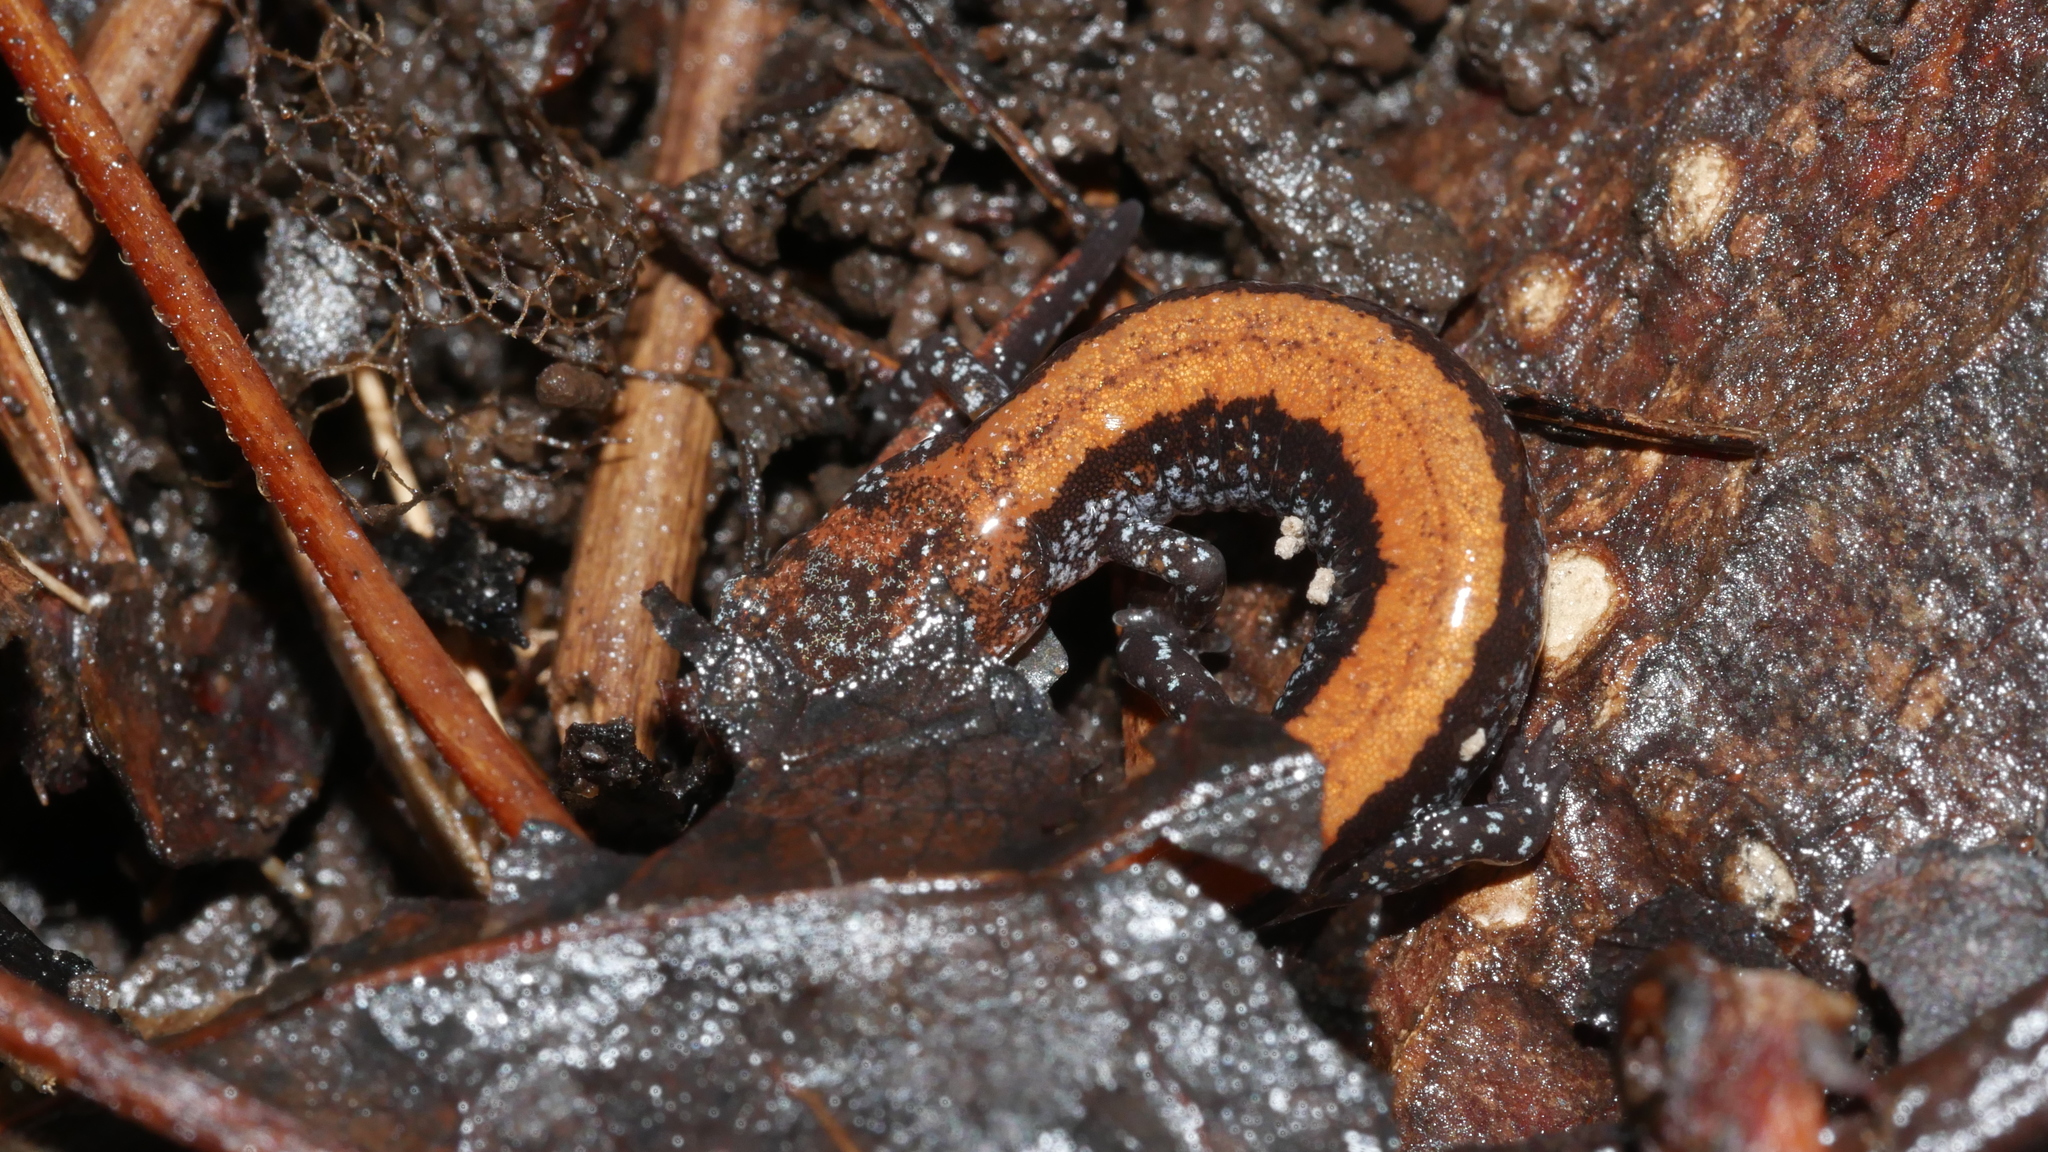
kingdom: Animalia
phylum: Chordata
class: Amphibia
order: Caudata
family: Plethodontidae
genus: Plethodon
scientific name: Plethodon cinereus
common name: Redback salamander
